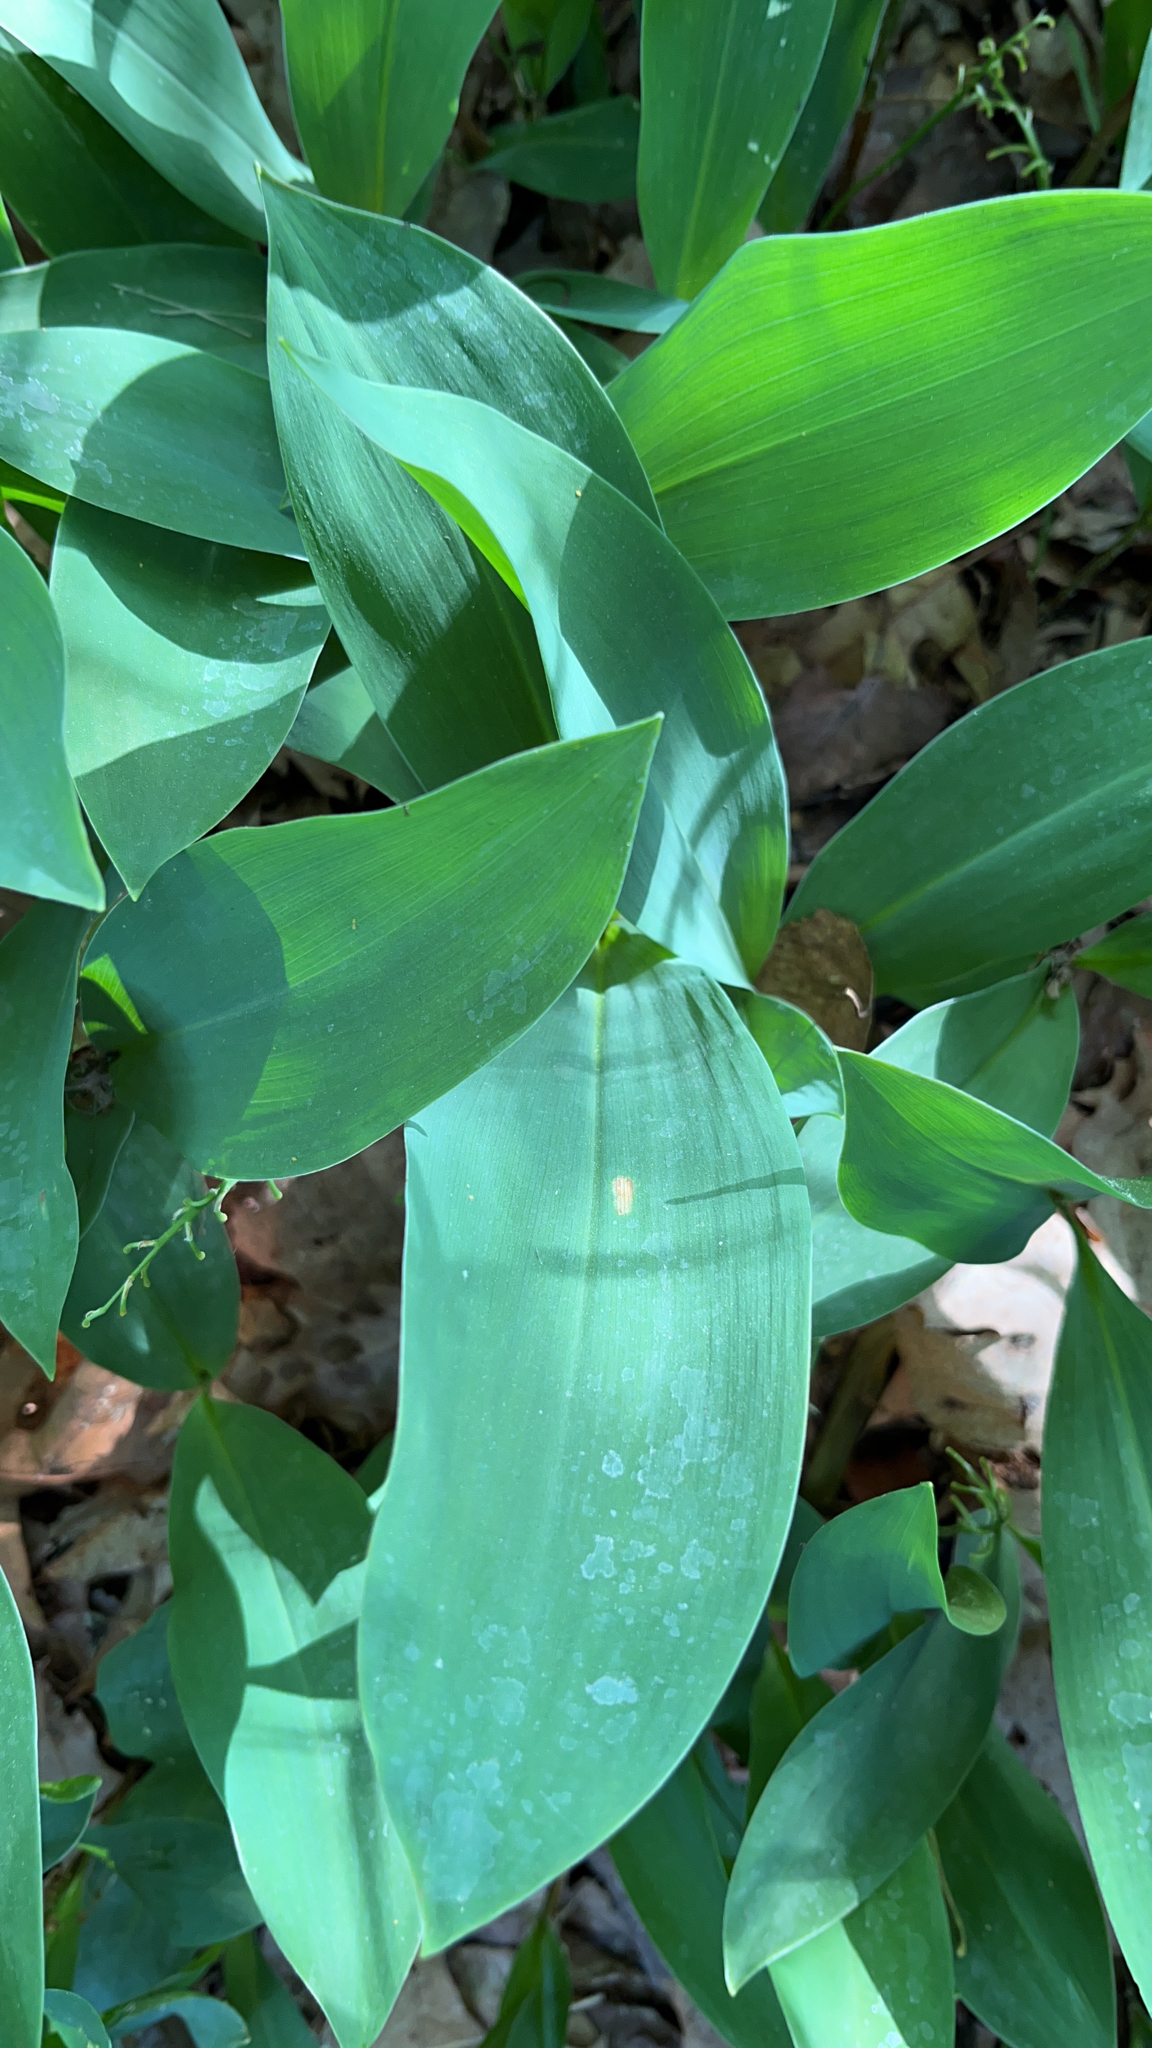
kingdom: Plantae
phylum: Tracheophyta
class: Liliopsida
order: Asparagales
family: Asparagaceae
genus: Convallaria
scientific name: Convallaria majalis
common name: Lily-of-the-valley
